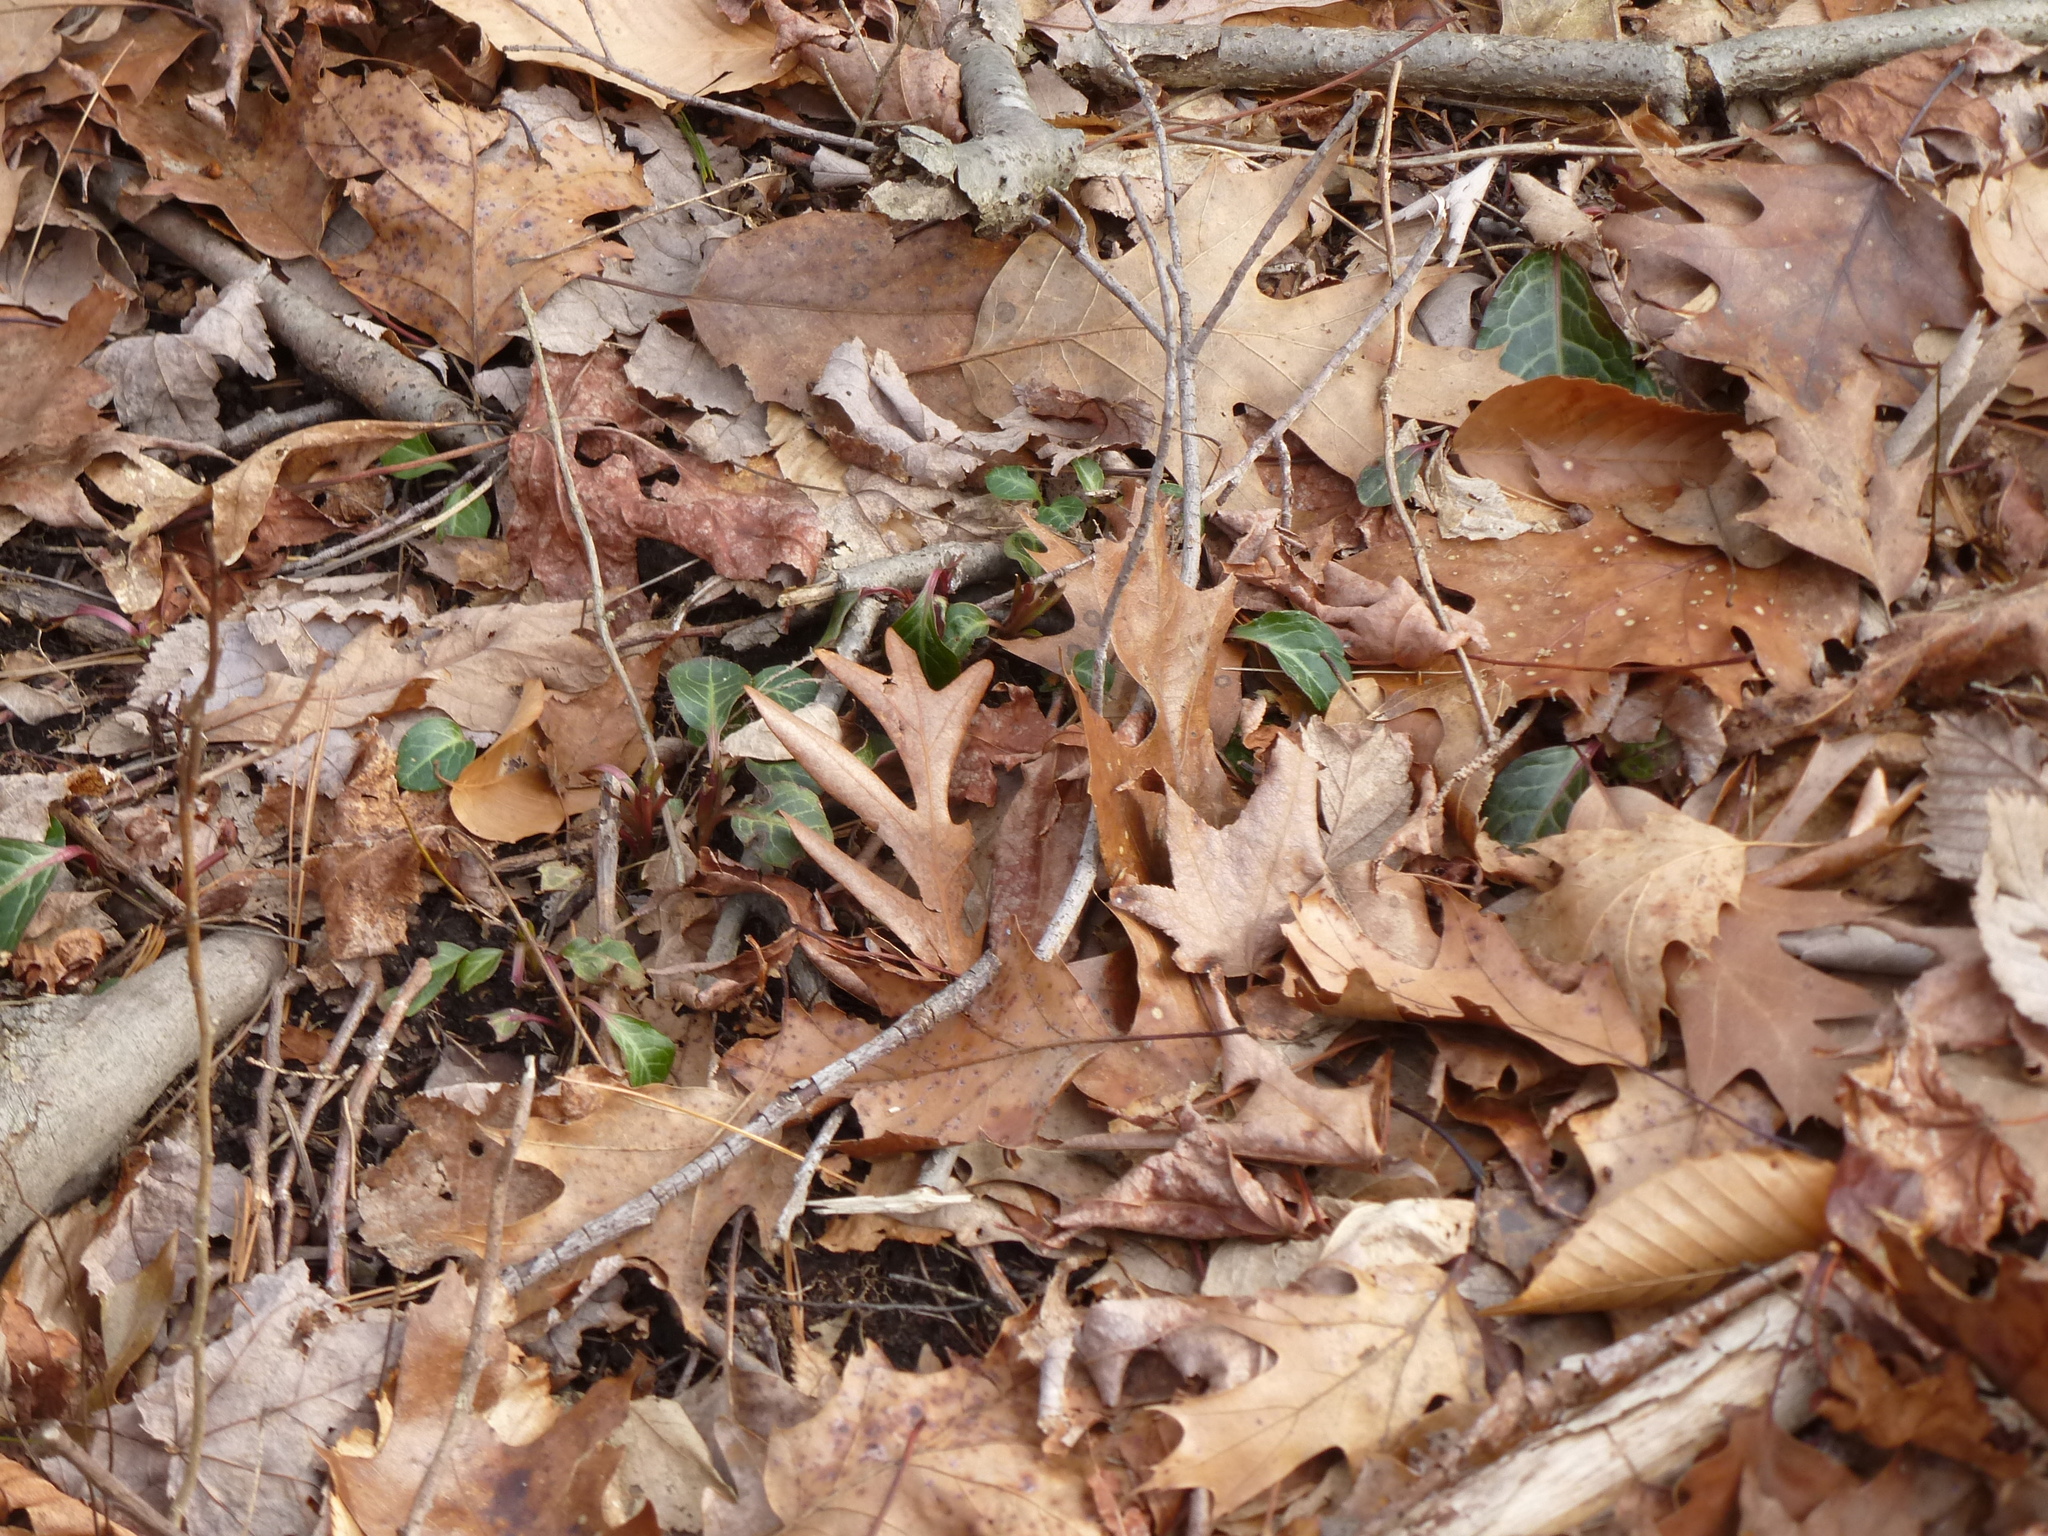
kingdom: Plantae
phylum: Tracheophyta
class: Magnoliopsida
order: Ericales
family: Ericaceae
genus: Pyrola
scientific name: Pyrola americana
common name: American wintergreen
